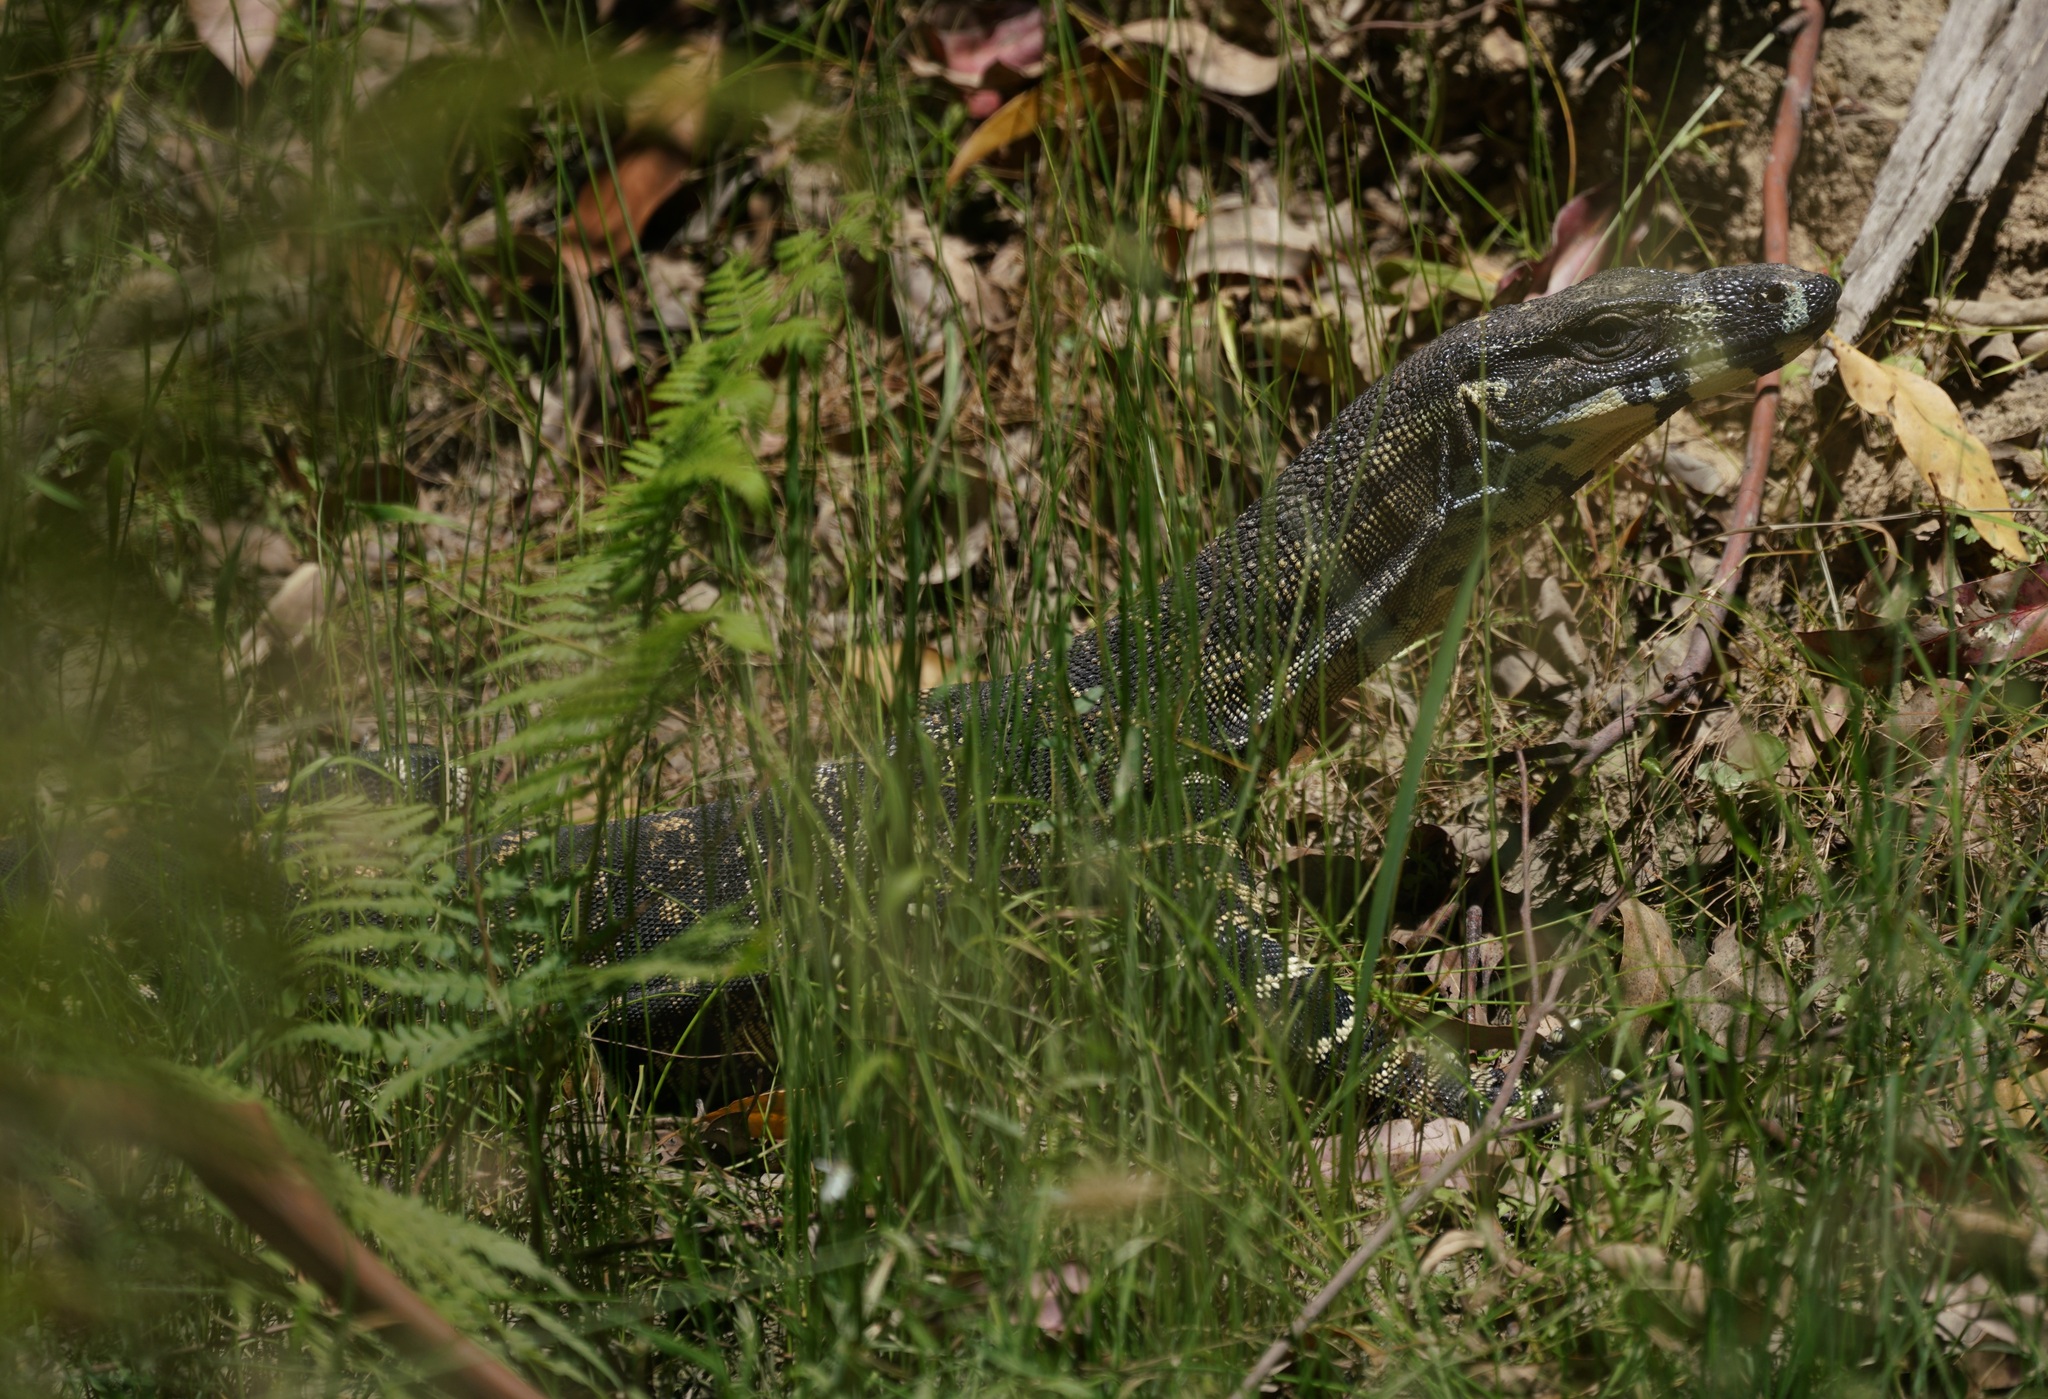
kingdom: Animalia
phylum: Chordata
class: Squamata
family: Varanidae
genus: Varanus
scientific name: Varanus varius
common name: Lace monitor
